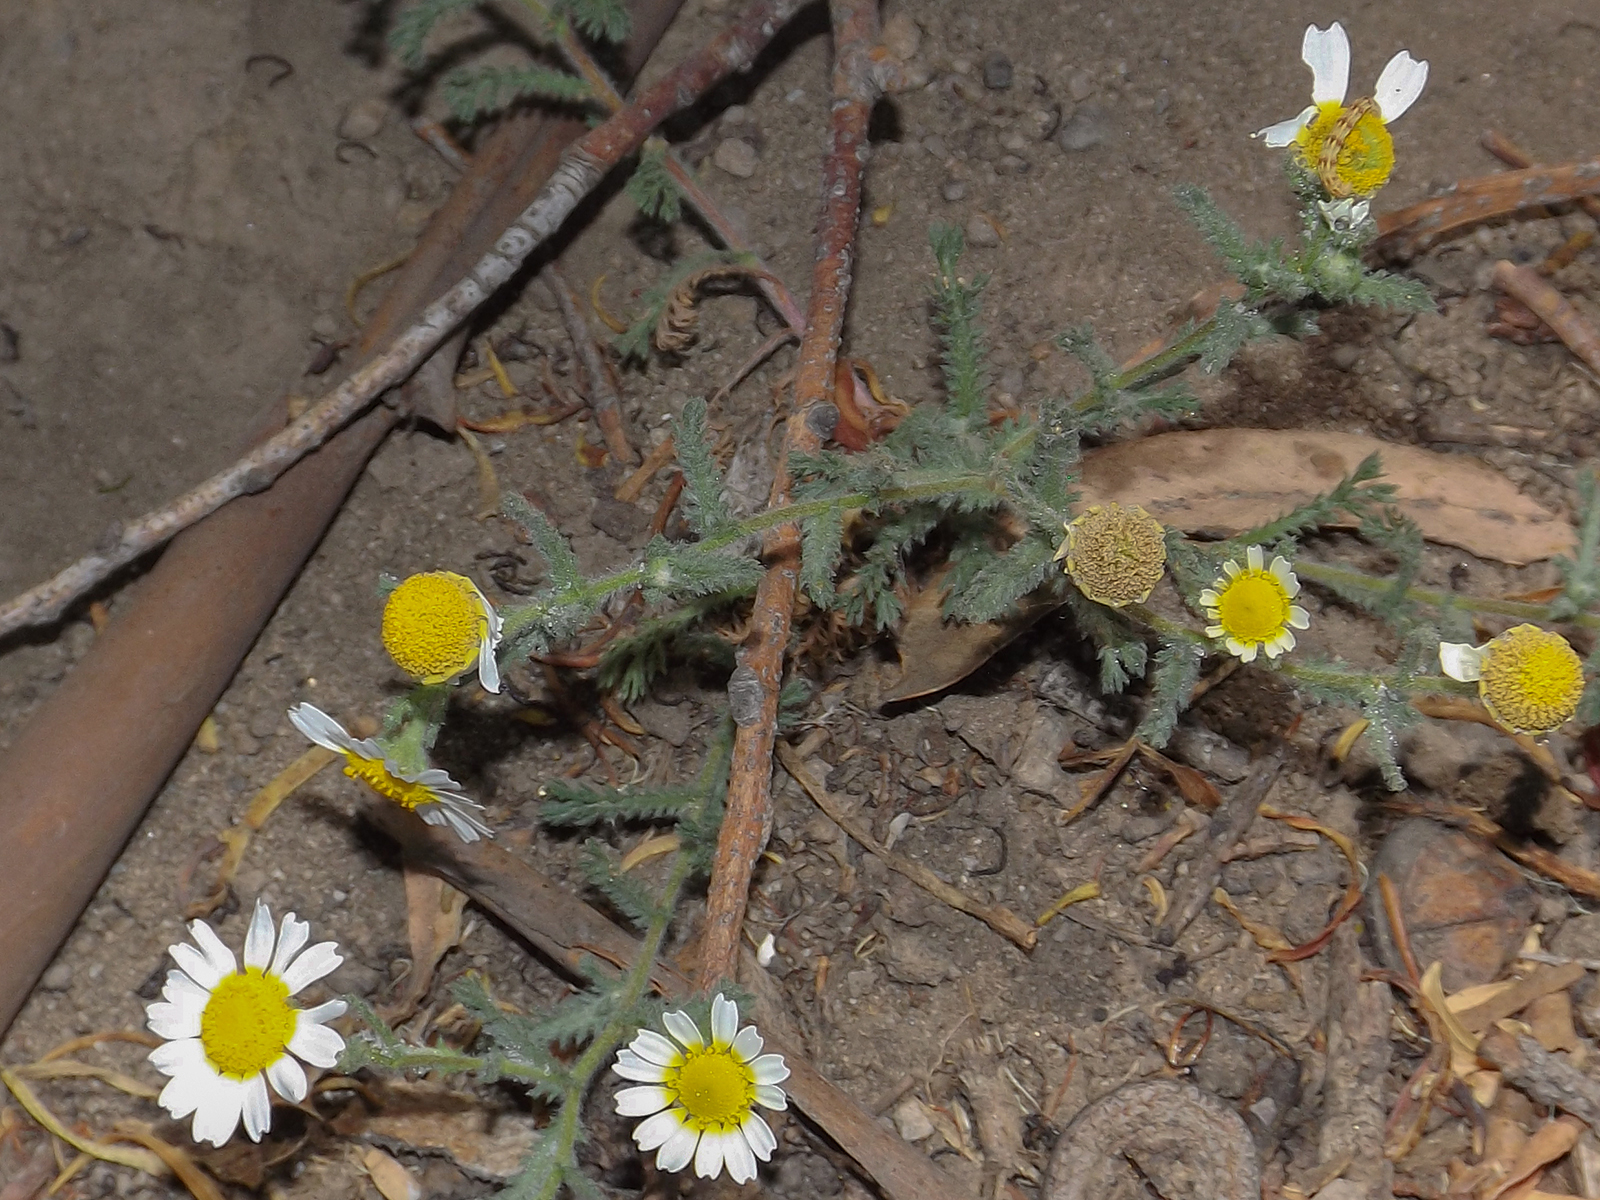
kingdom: Plantae
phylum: Tracheophyta
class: Magnoliopsida
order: Asterales
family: Asteraceae
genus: Cladanthus
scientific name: Cladanthus mixtus
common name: Weedy dogfennel
